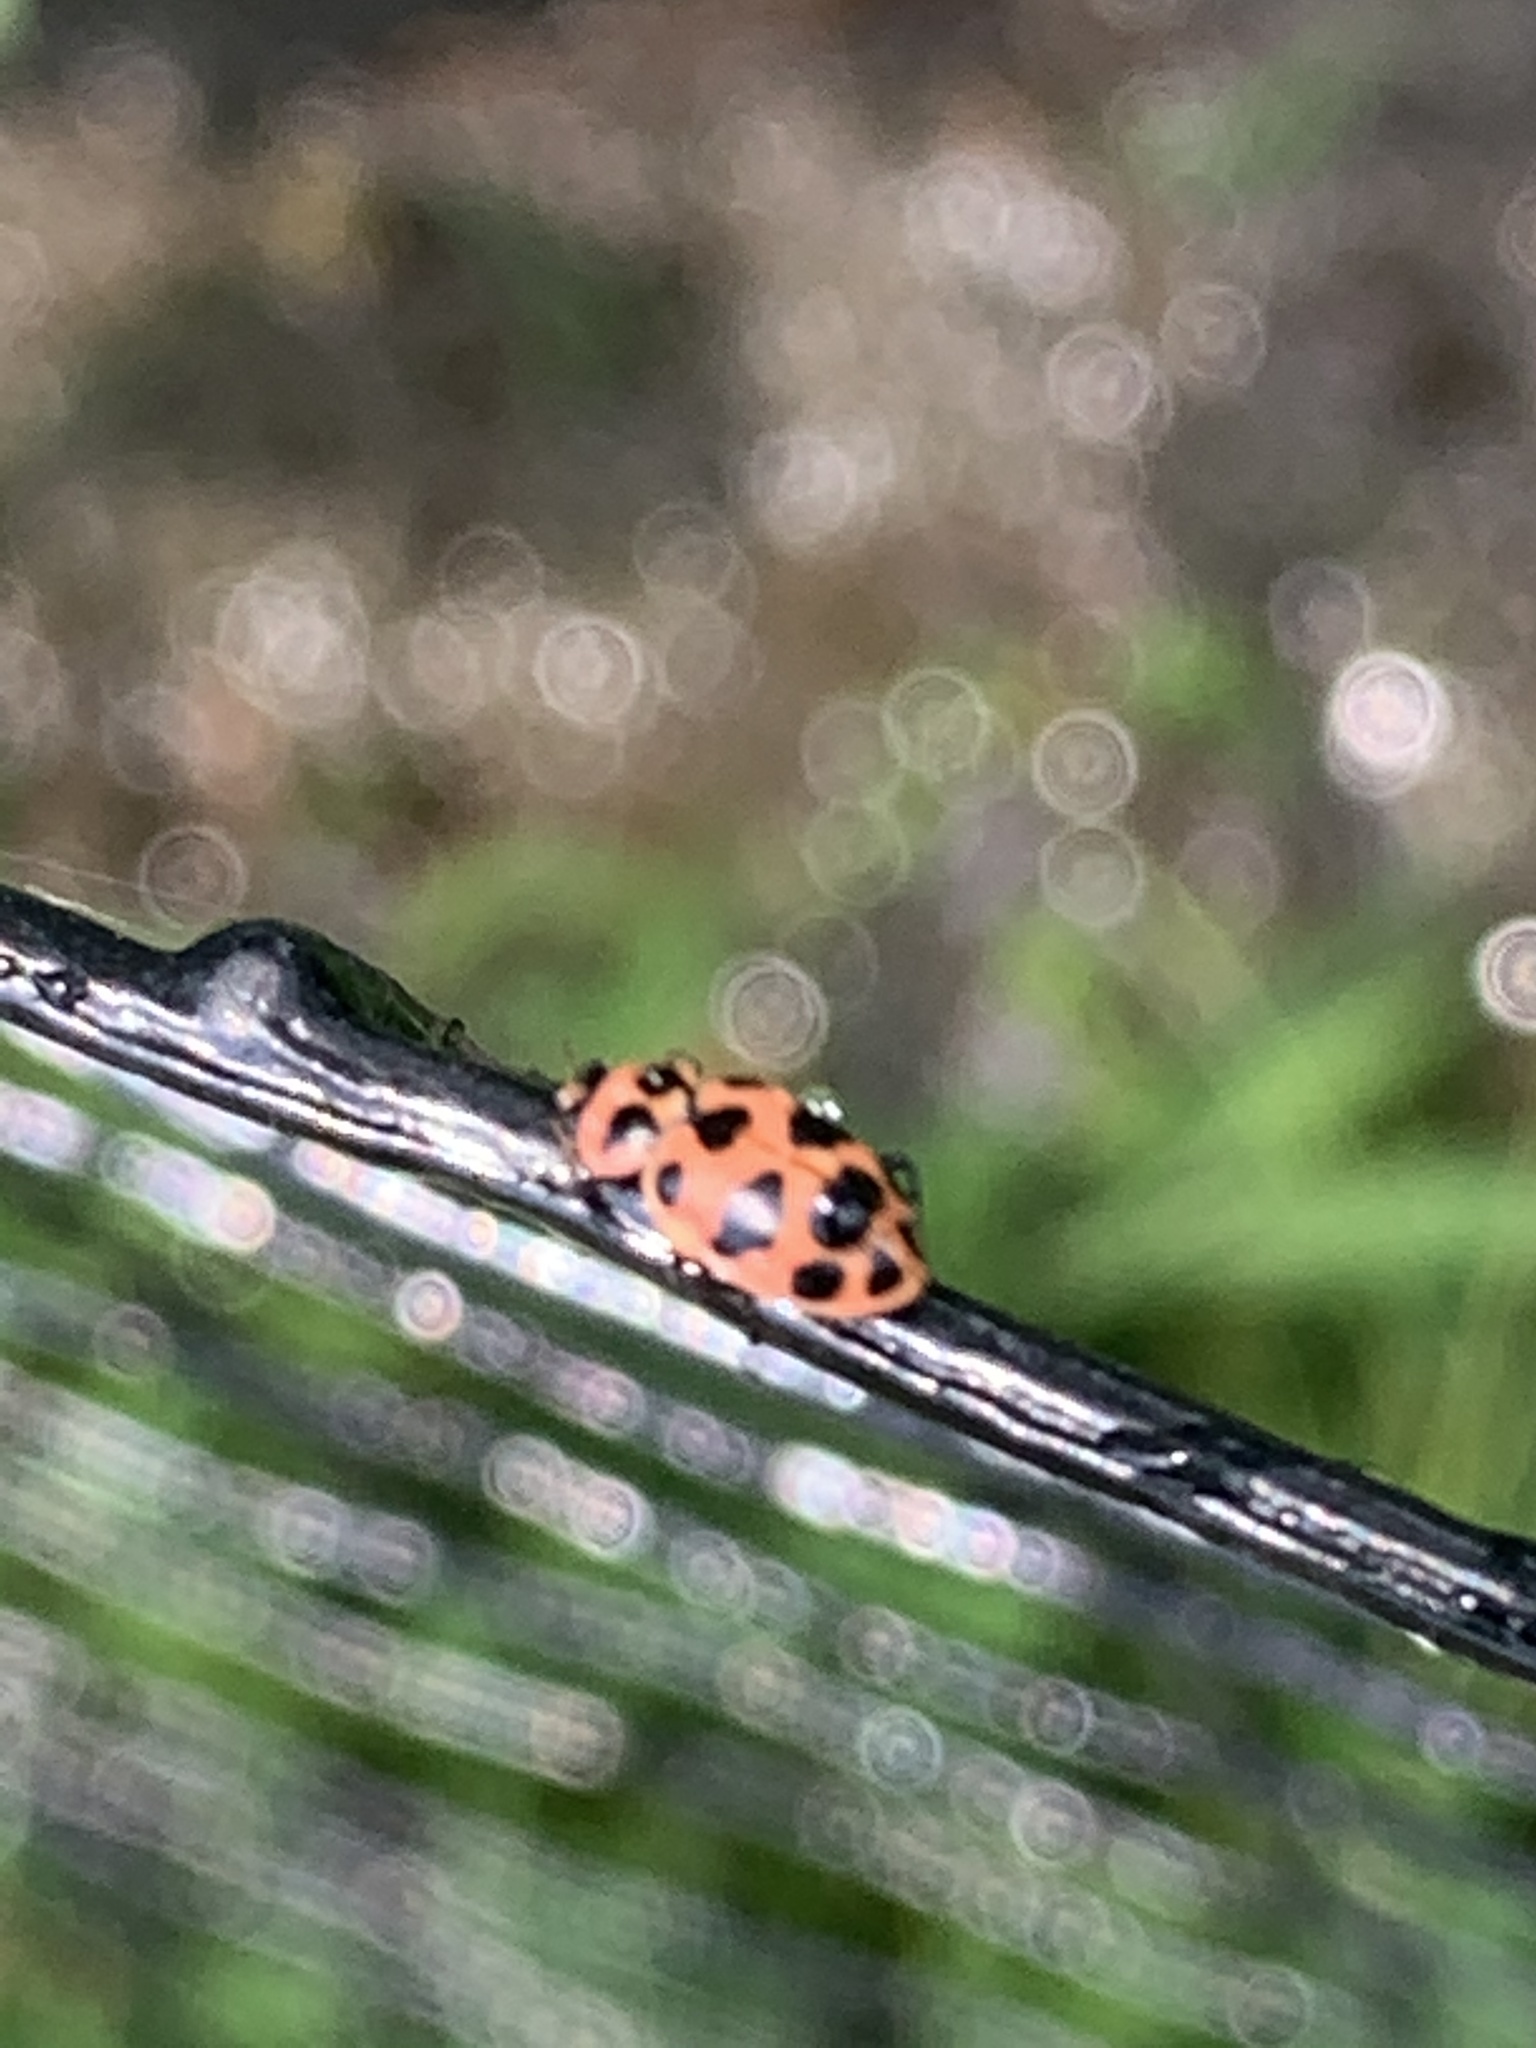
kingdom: Animalia
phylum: Arthropoda
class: Insecta
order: Coleoptera
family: Coccinellidae
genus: Coleomegilla
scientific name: Coleomegilla maculata
